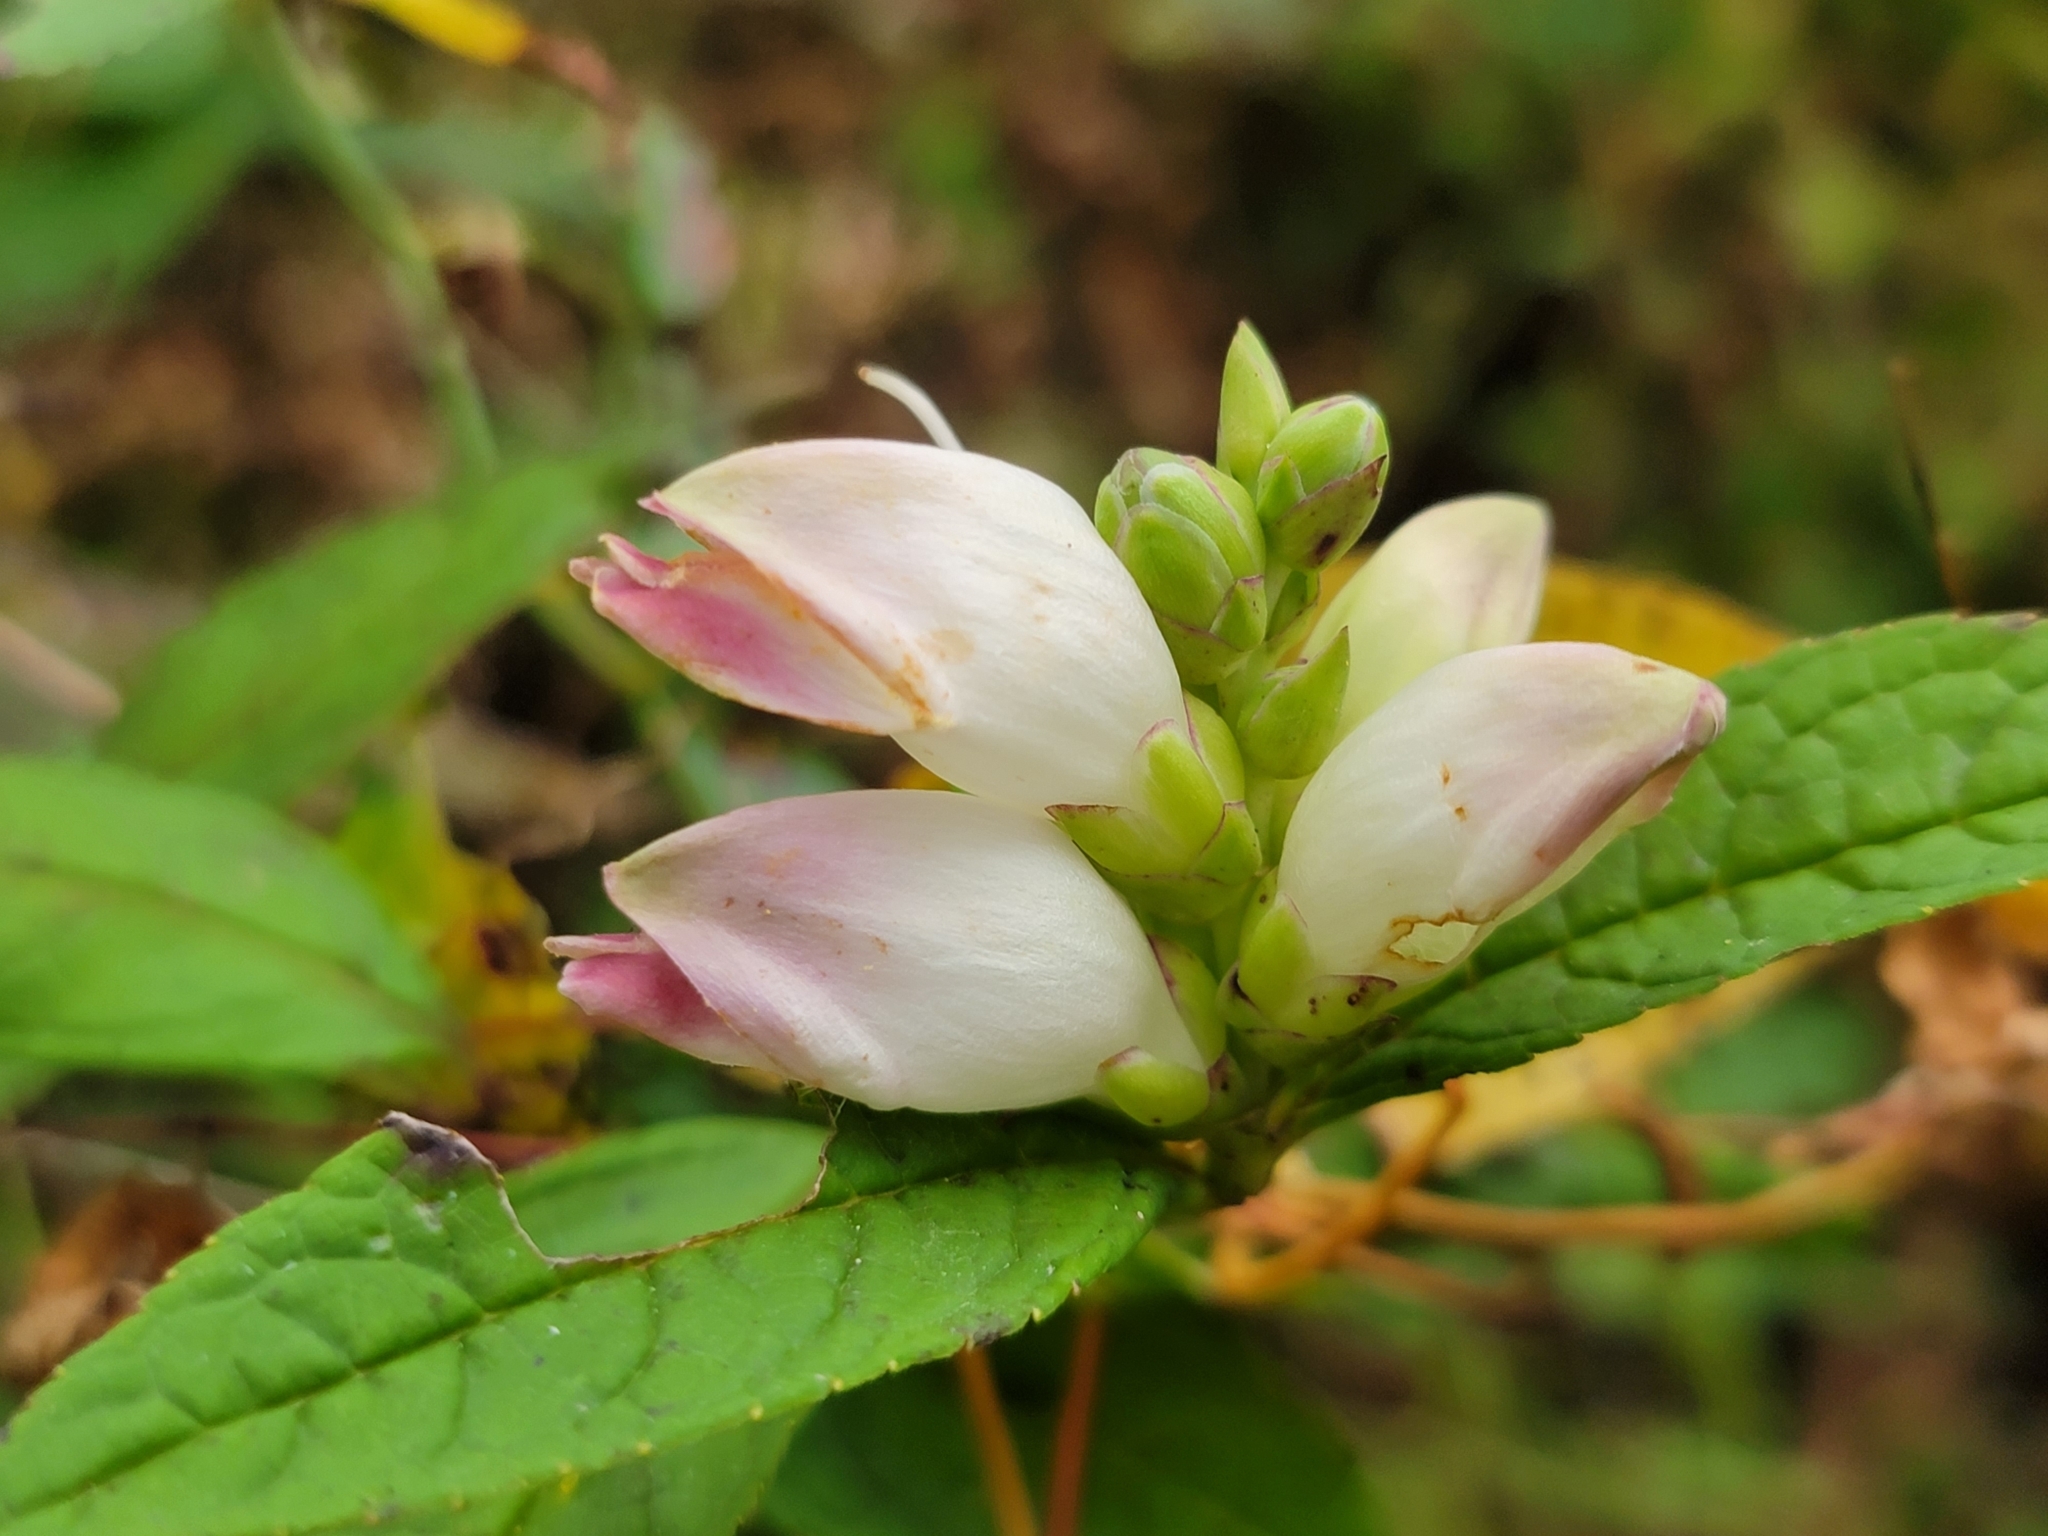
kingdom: Plantae
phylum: Tracheophyta
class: Magnoliopsida
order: Lamiales
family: Plantaginaceae
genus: Chelone
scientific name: Chelone glabra
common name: Snakehead
